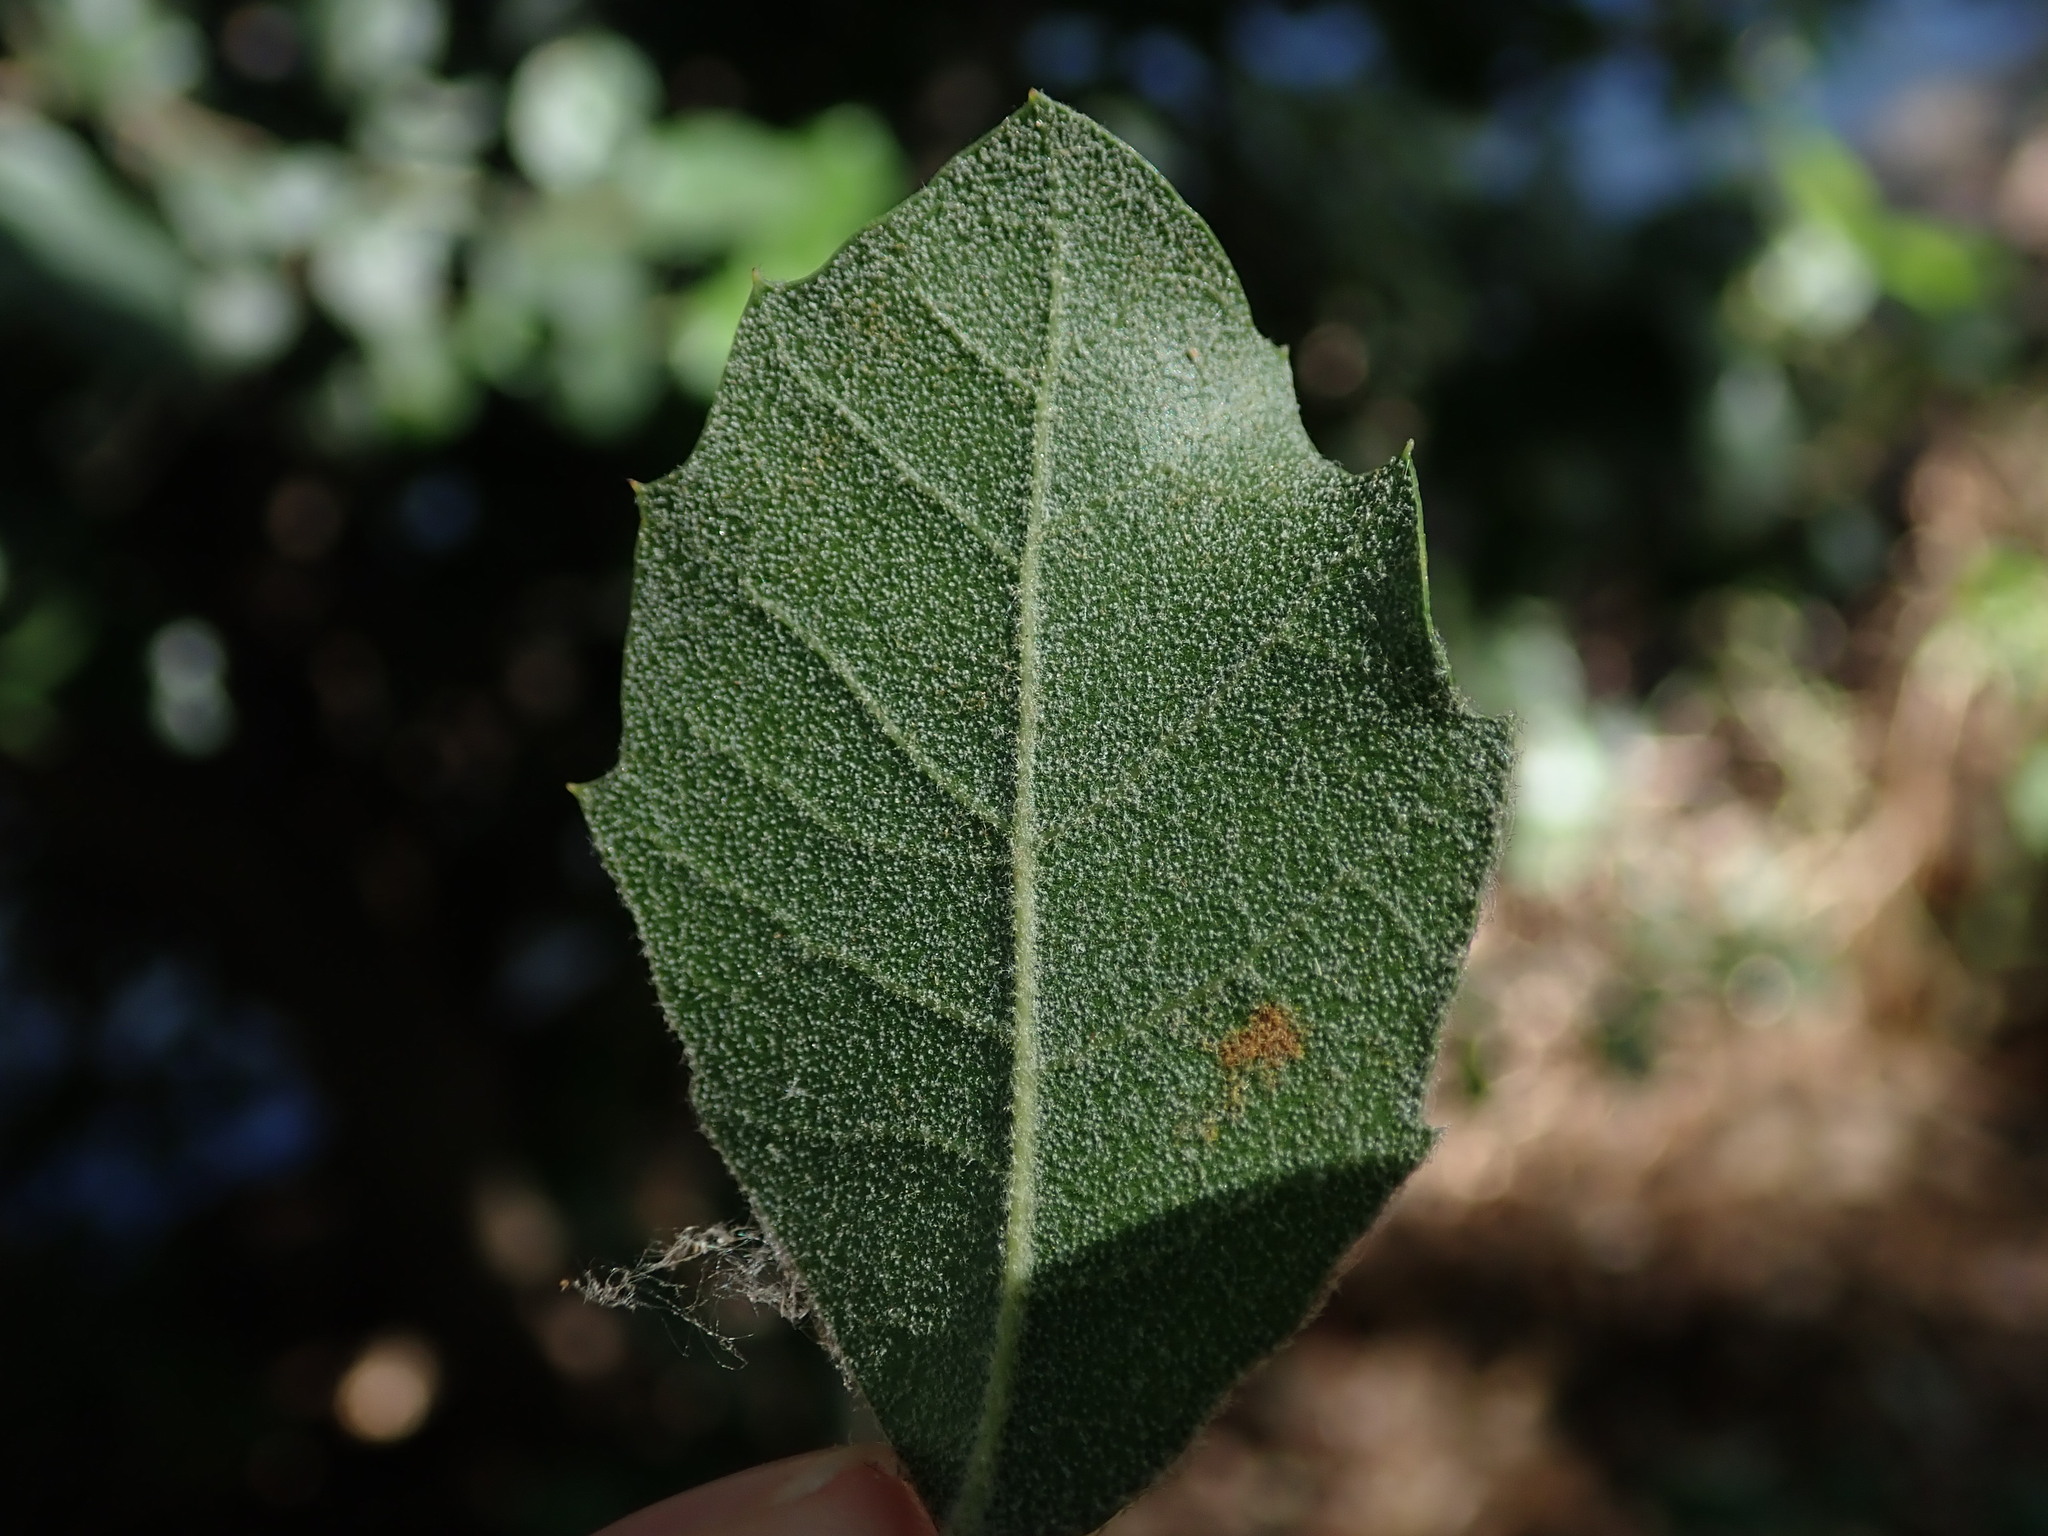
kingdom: Plantae
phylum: Tracheophyta
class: Magnoliopsida
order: Fagales
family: Fagaceae
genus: Quercus
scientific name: Quercus ilex
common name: Evergreen oak
